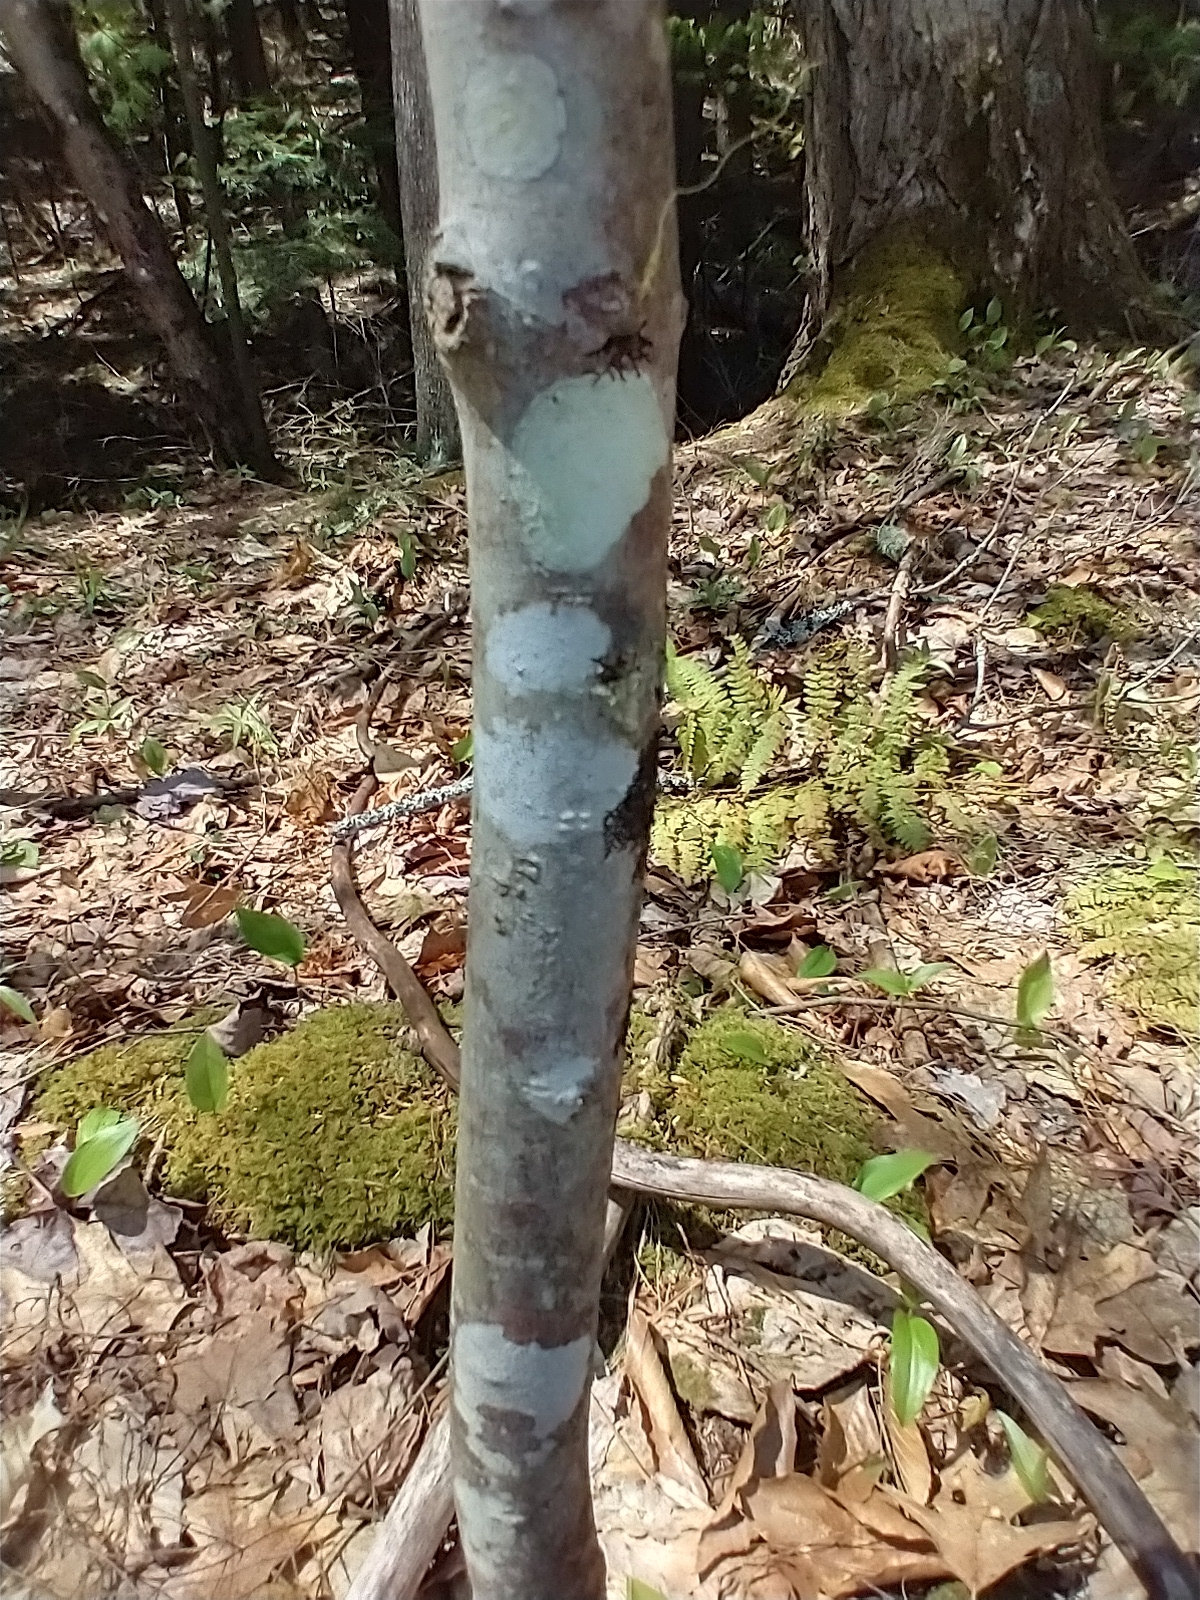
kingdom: Fungi
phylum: Ascomycota
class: Lecanoromycetes
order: Ostropales
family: Graphidaceae
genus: Graphis
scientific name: Graphis scripta
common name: Script lichen
